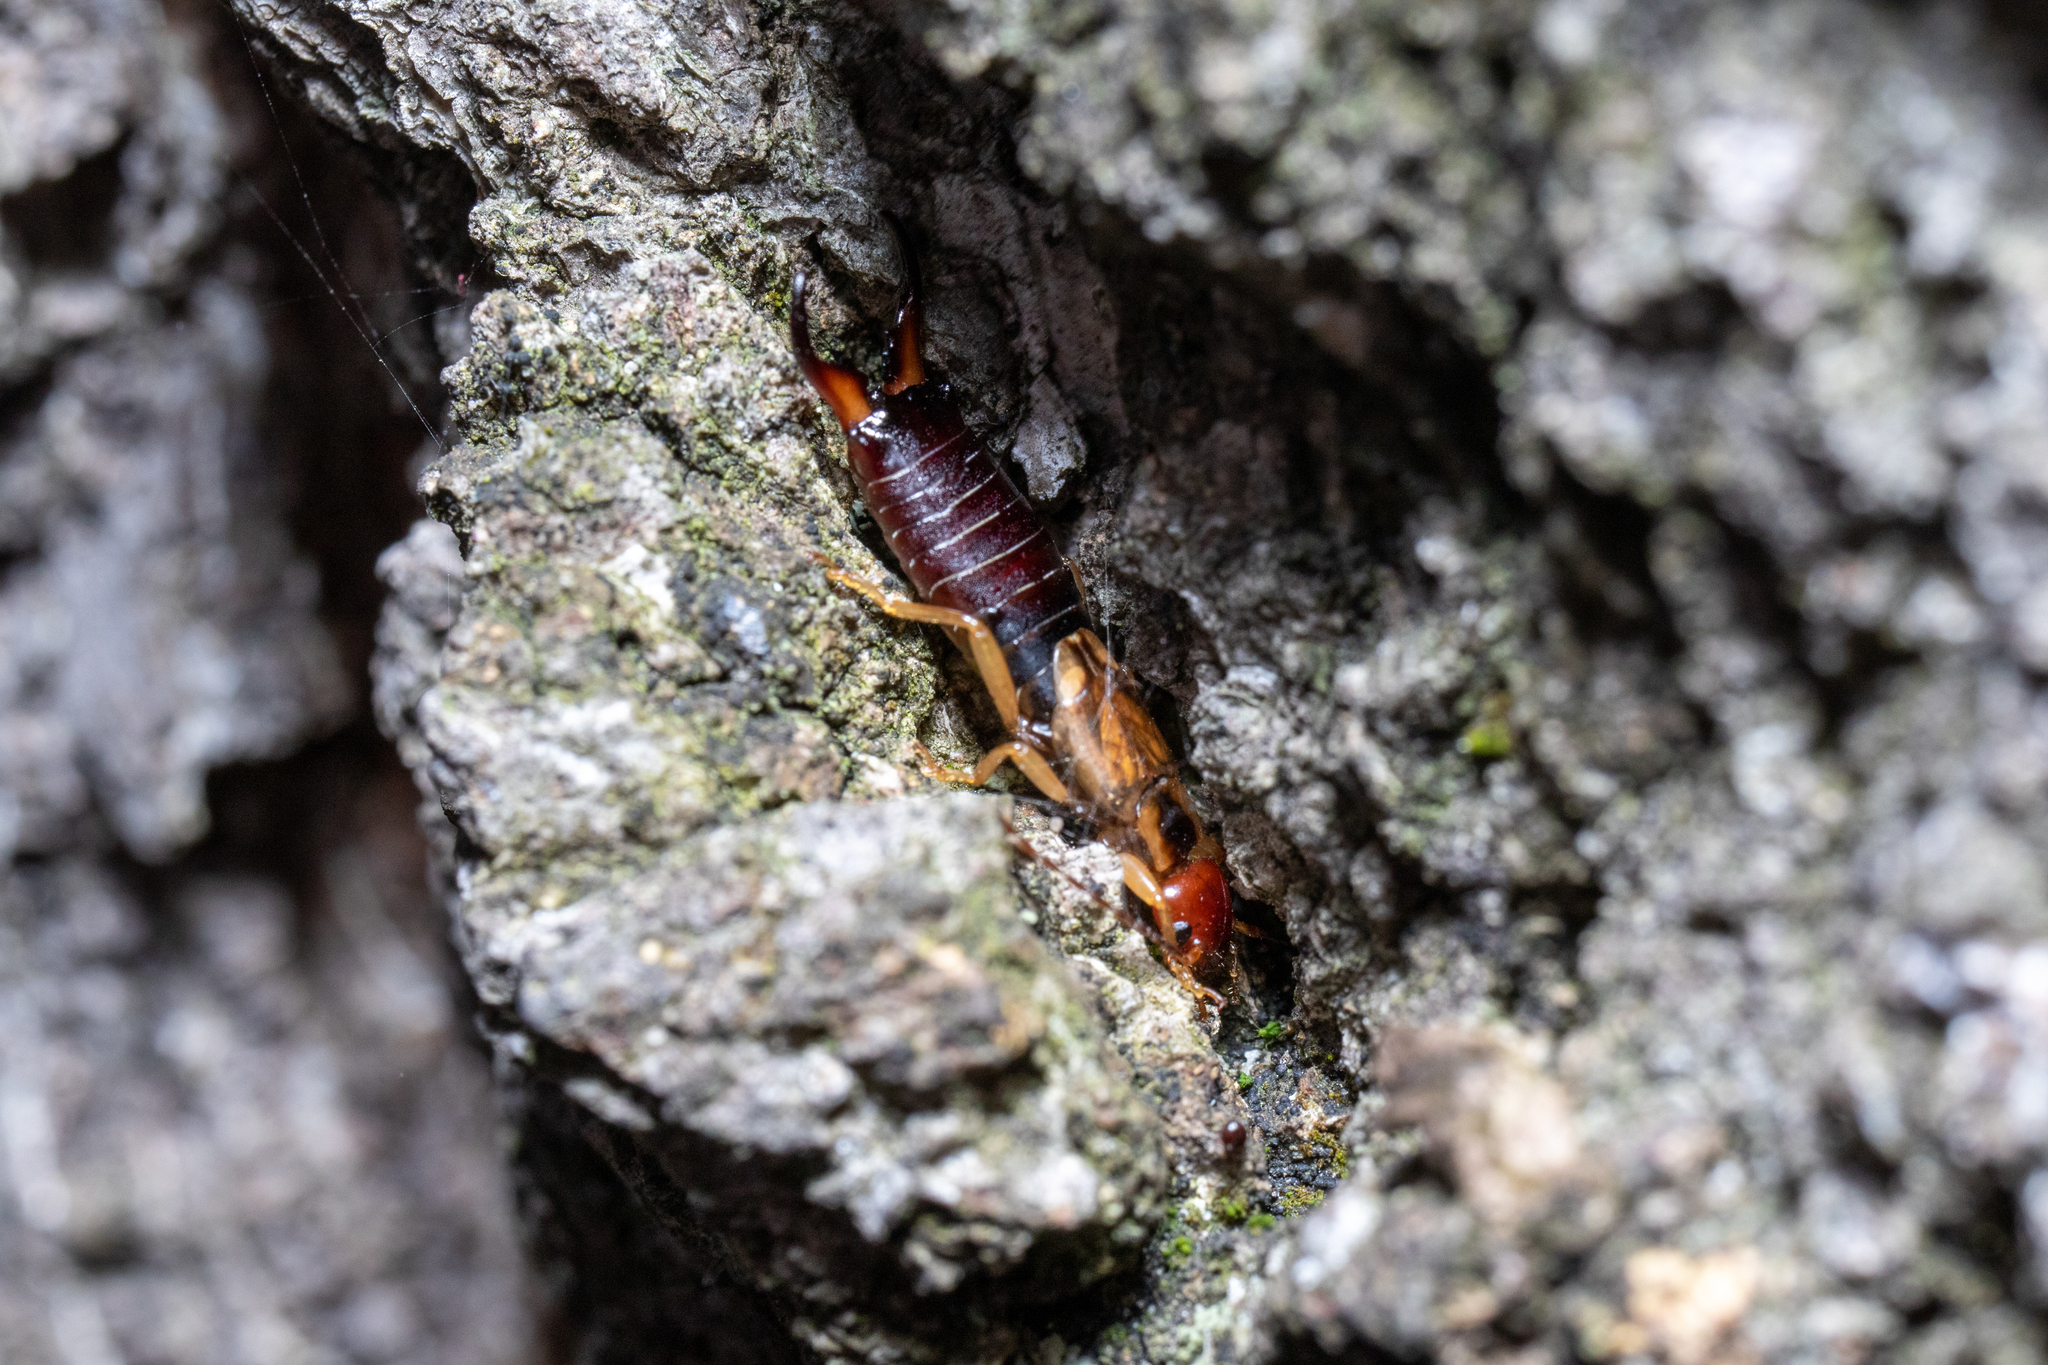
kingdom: Animalia
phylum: Arthropoda
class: Insecta
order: Dermaptera
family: Forficulidae
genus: Forficula
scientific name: Forficula
